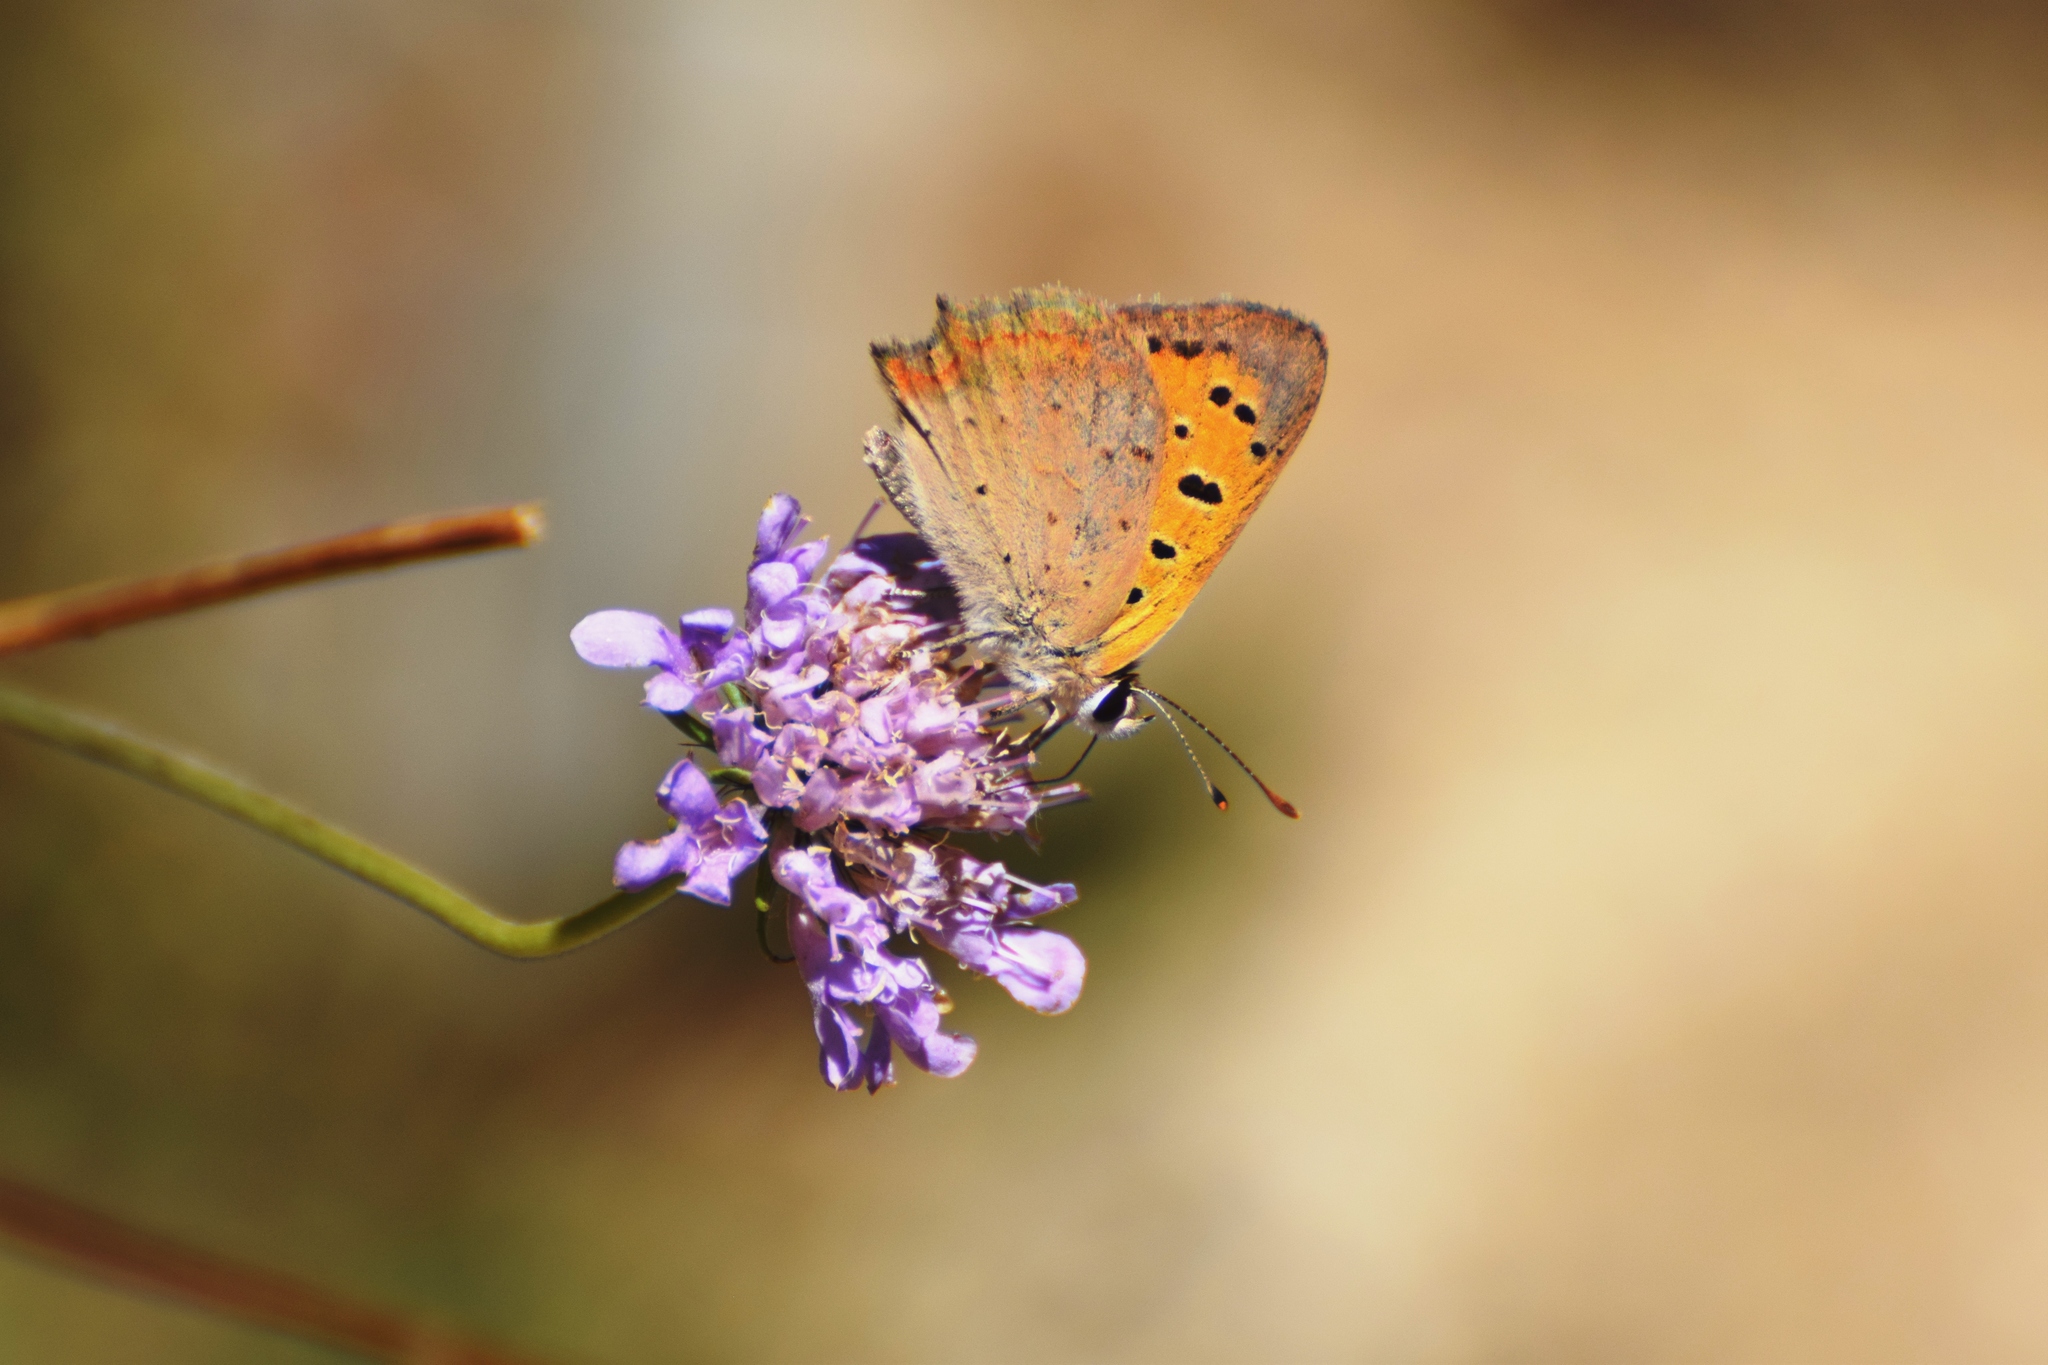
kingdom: Animalia
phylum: Arthropoda
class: Insecta
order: Lepidoptera
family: Lycaenidae
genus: Lycaena
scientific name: Lycaena phlaeas
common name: Small copper
